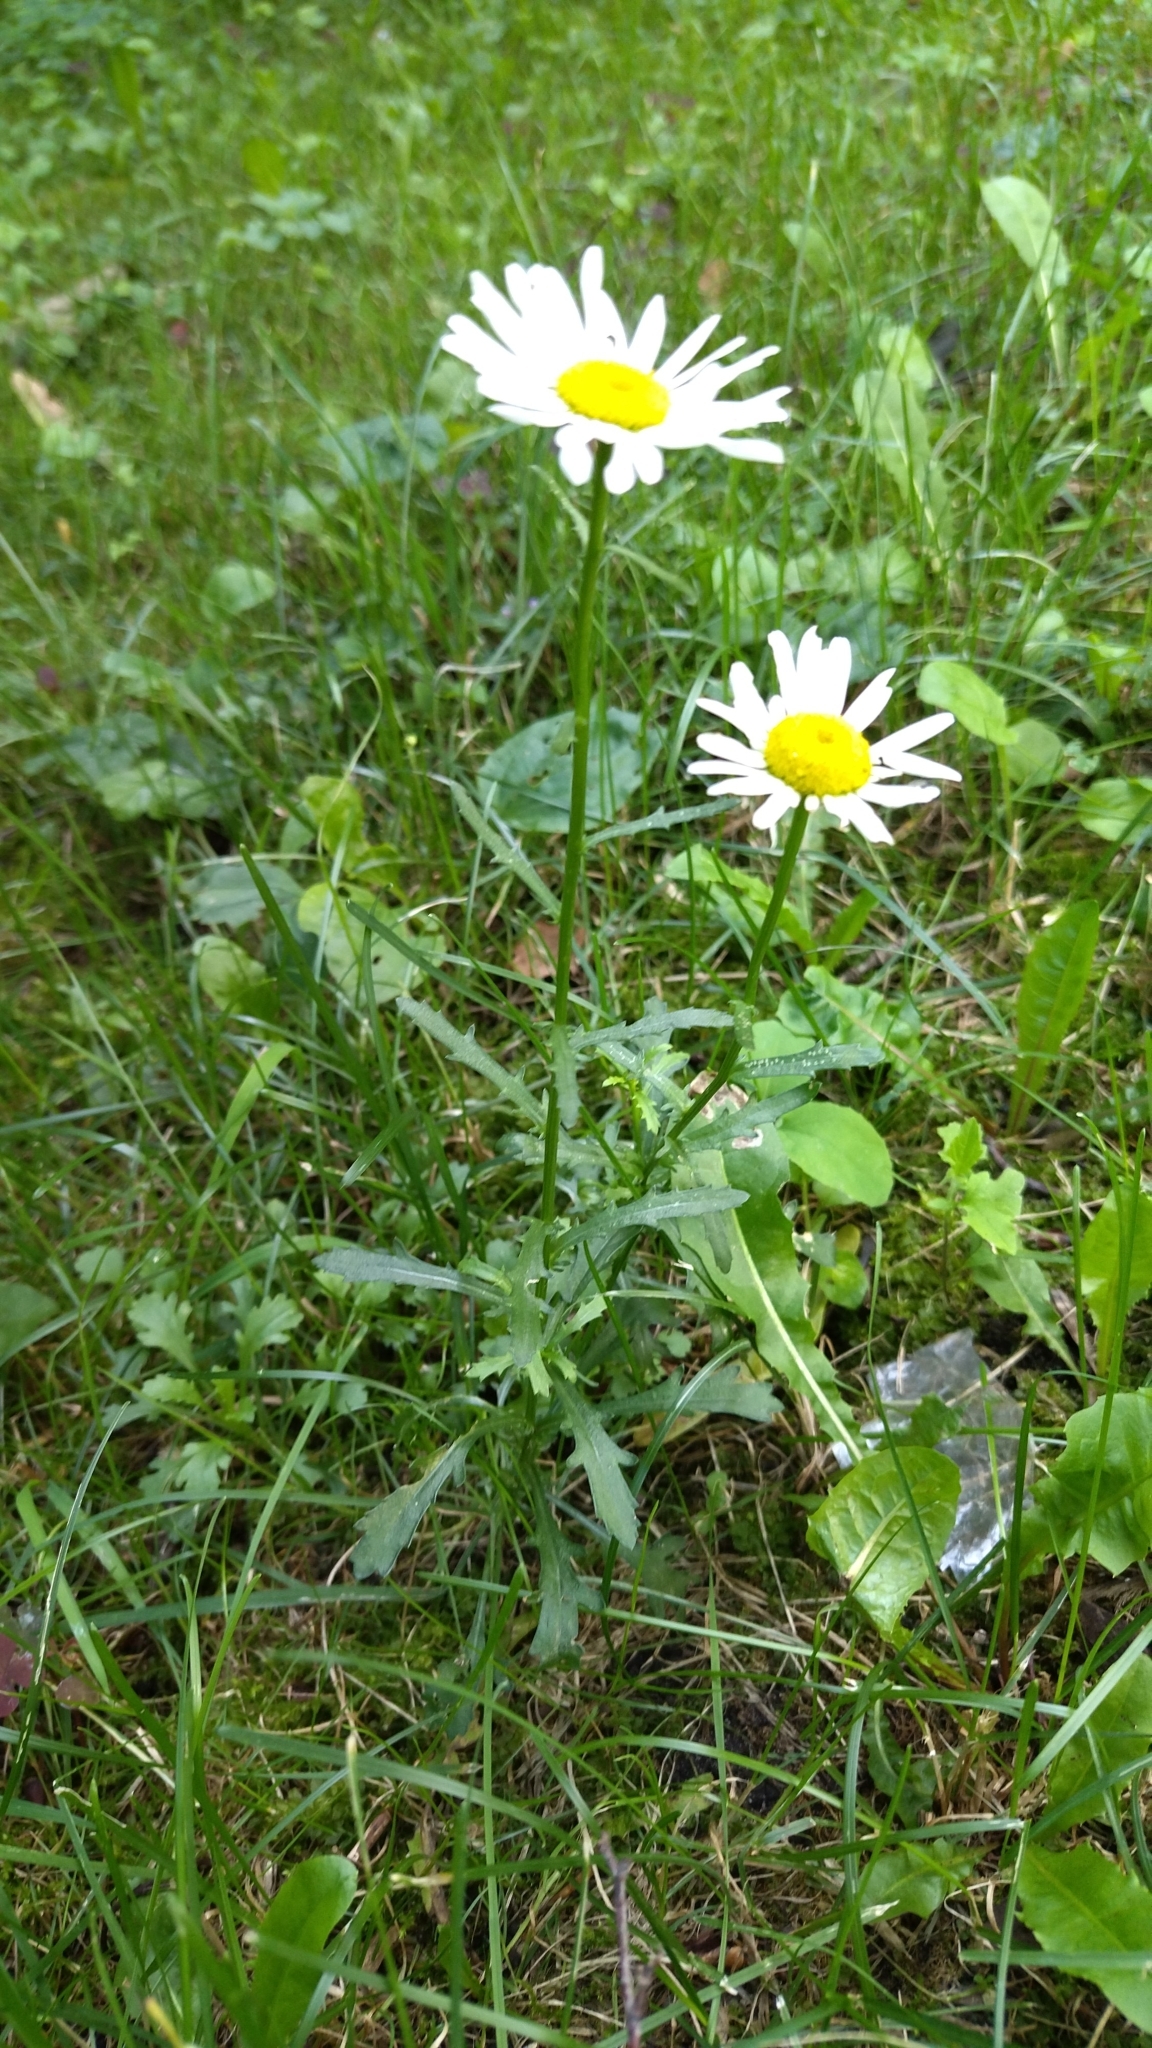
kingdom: Plantae
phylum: Tracheophyta
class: Magnoliopsida
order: Asterales
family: Asteraceae
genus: Leucanthemum
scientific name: Leucanthemum vulgare
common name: Oxeye daisy
